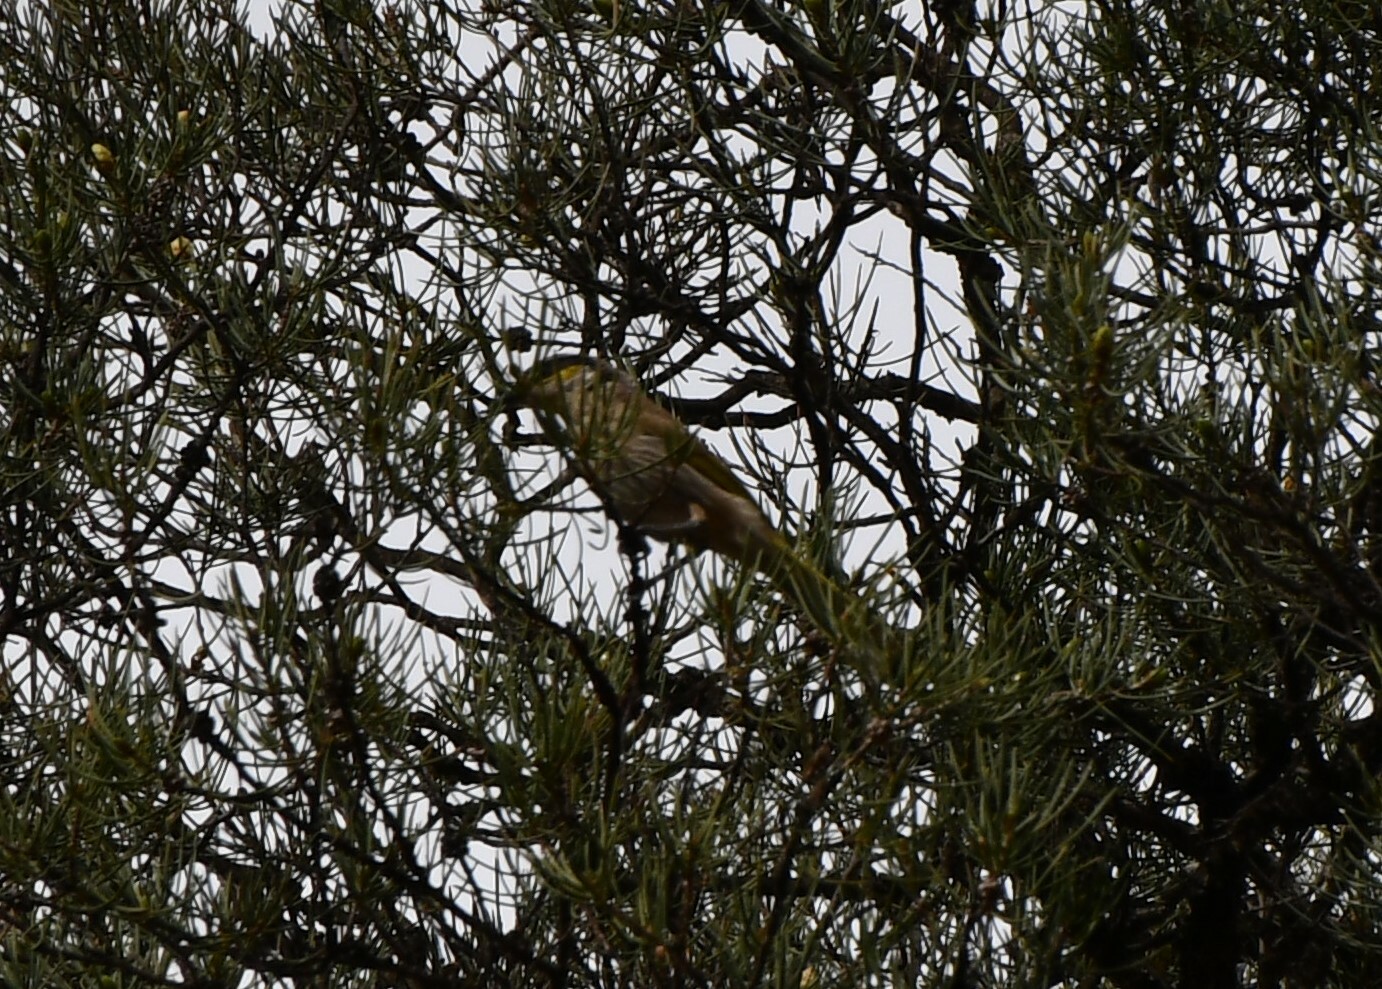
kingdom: Animalia
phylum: Chordata
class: Aves
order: Passeriformes
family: Meliphagidae
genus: Gavicalis
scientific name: Gavicalis virescens
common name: Singing honeyeater
